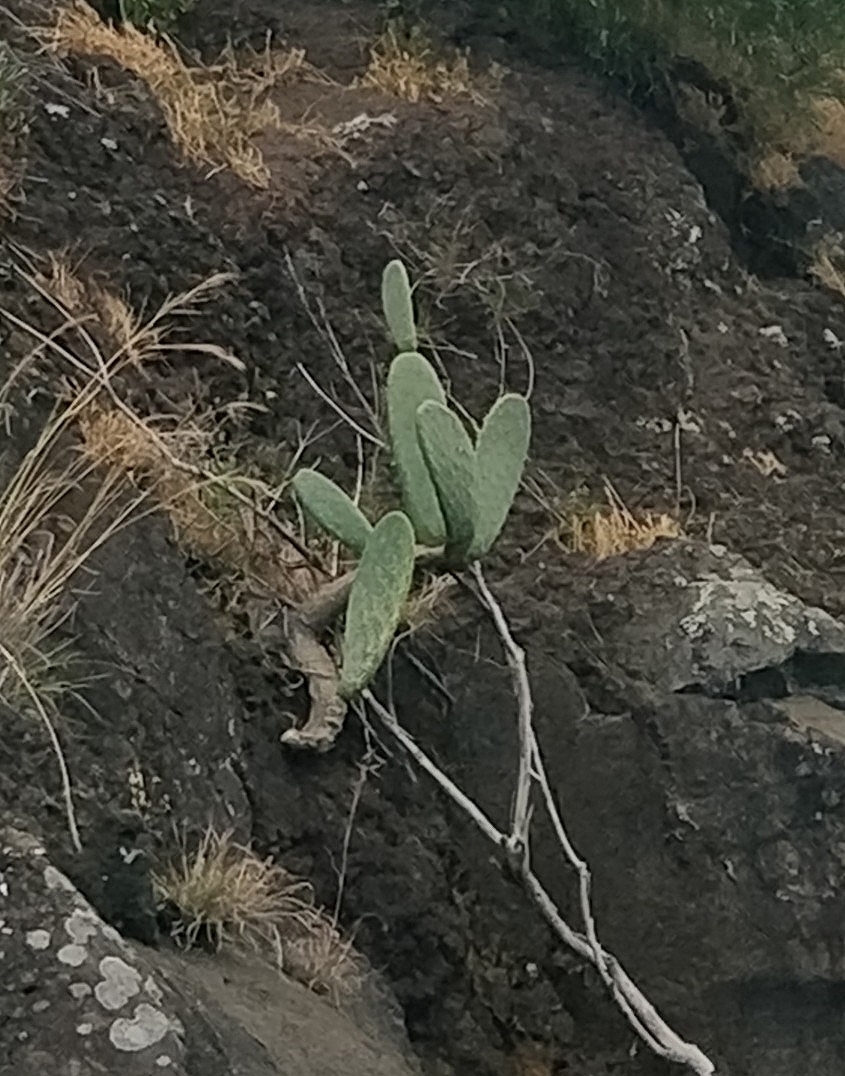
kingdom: Plantae
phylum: Tracheophyta
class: Magnoliopsida
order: Caryophyllales
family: Cactaceae
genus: Opuntia
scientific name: Opuntia ficus-indica
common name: Barbary fig
